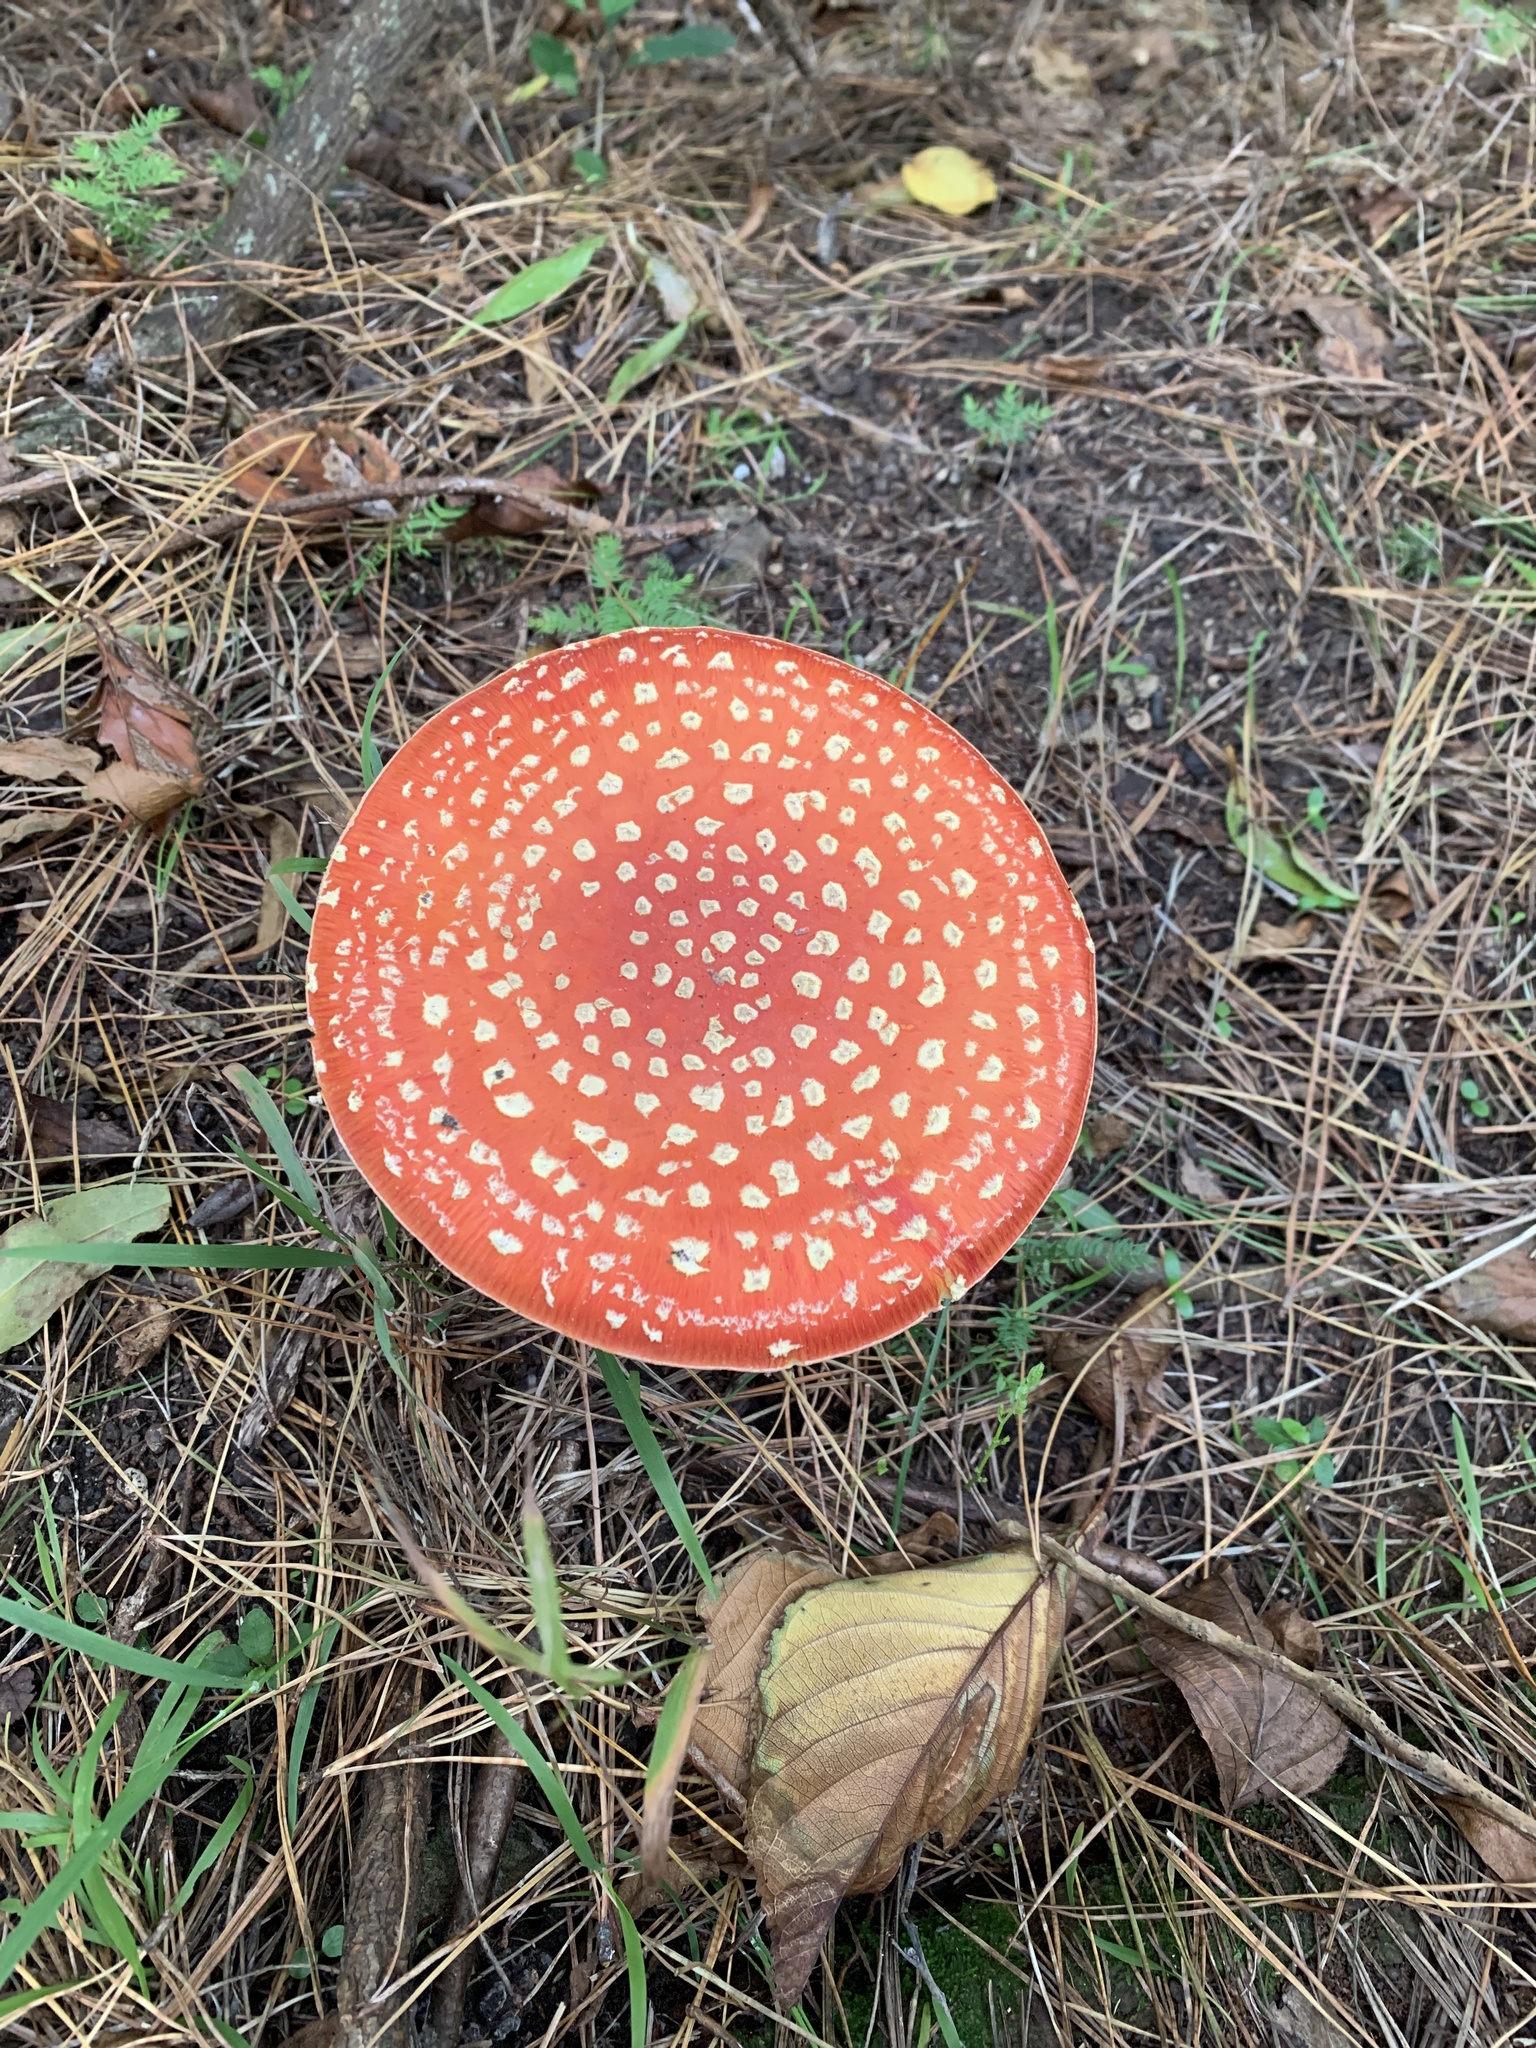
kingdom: Fungi
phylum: Basidiomycota
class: Agaricomycetes
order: Agaricales
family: Amanitaceae
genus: Amanita
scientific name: Amanita muscaria
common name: Fly agaric
